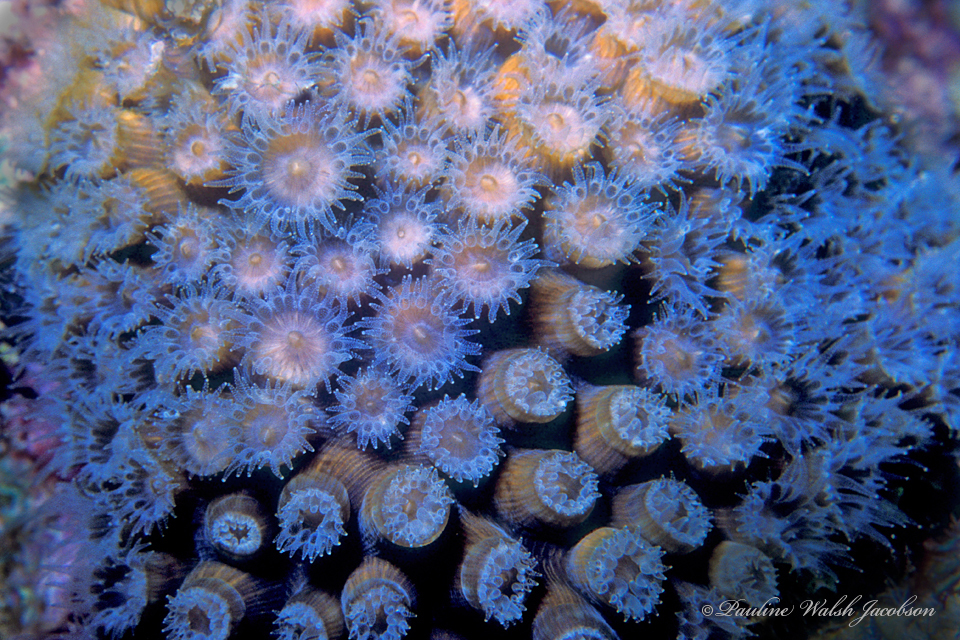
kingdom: Animalia
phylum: Cnidaria
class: Anthozoa
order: Scleractinia
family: Montastraeidae
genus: Montastraea
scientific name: Montastraea cavernosa
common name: Great star coral
